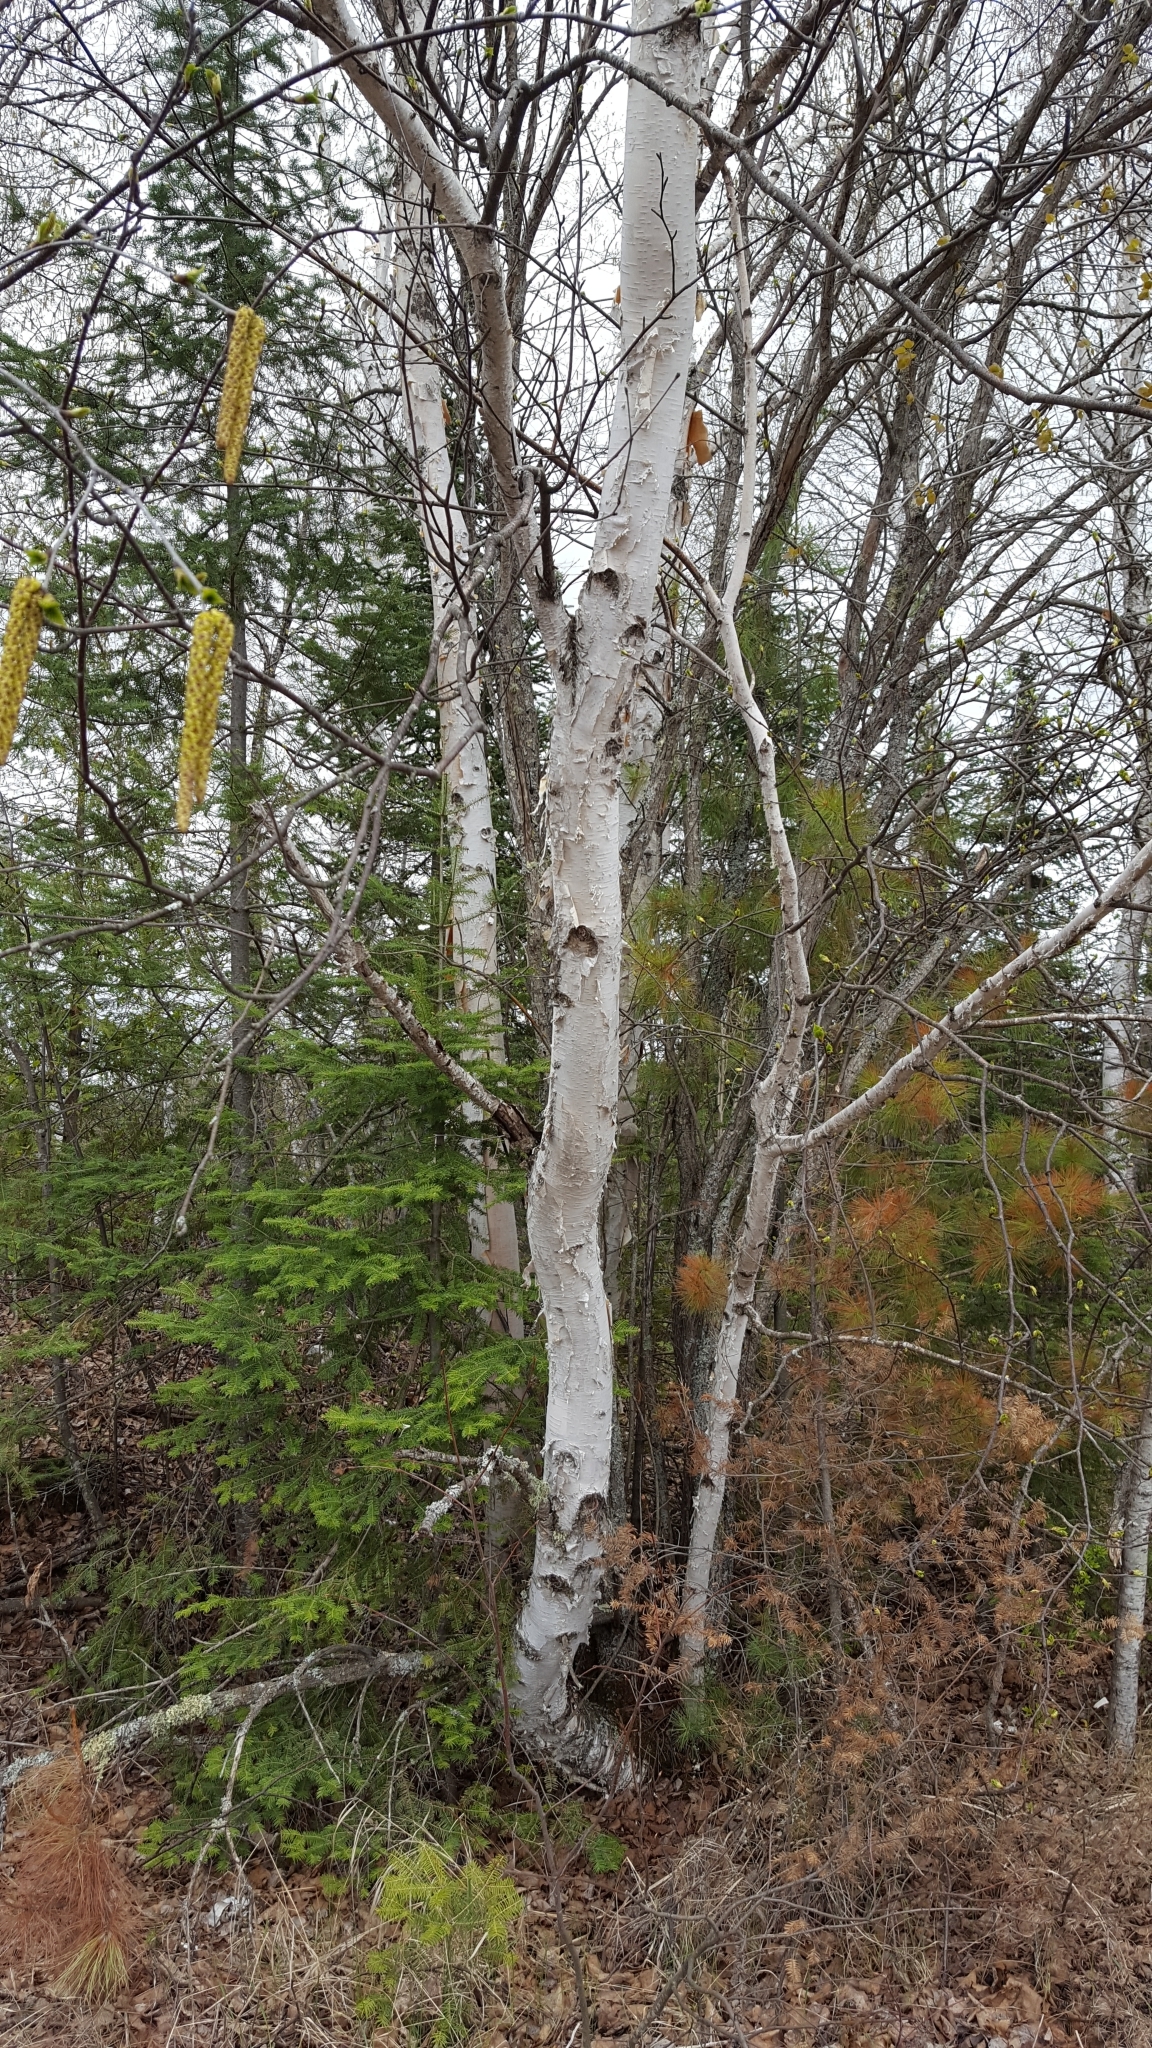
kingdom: Plantae
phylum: Tracheophyta
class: Magnoliopsida
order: Fagales
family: Betulaceae
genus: Betula
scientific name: Betula papyrifera
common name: Paper birch
